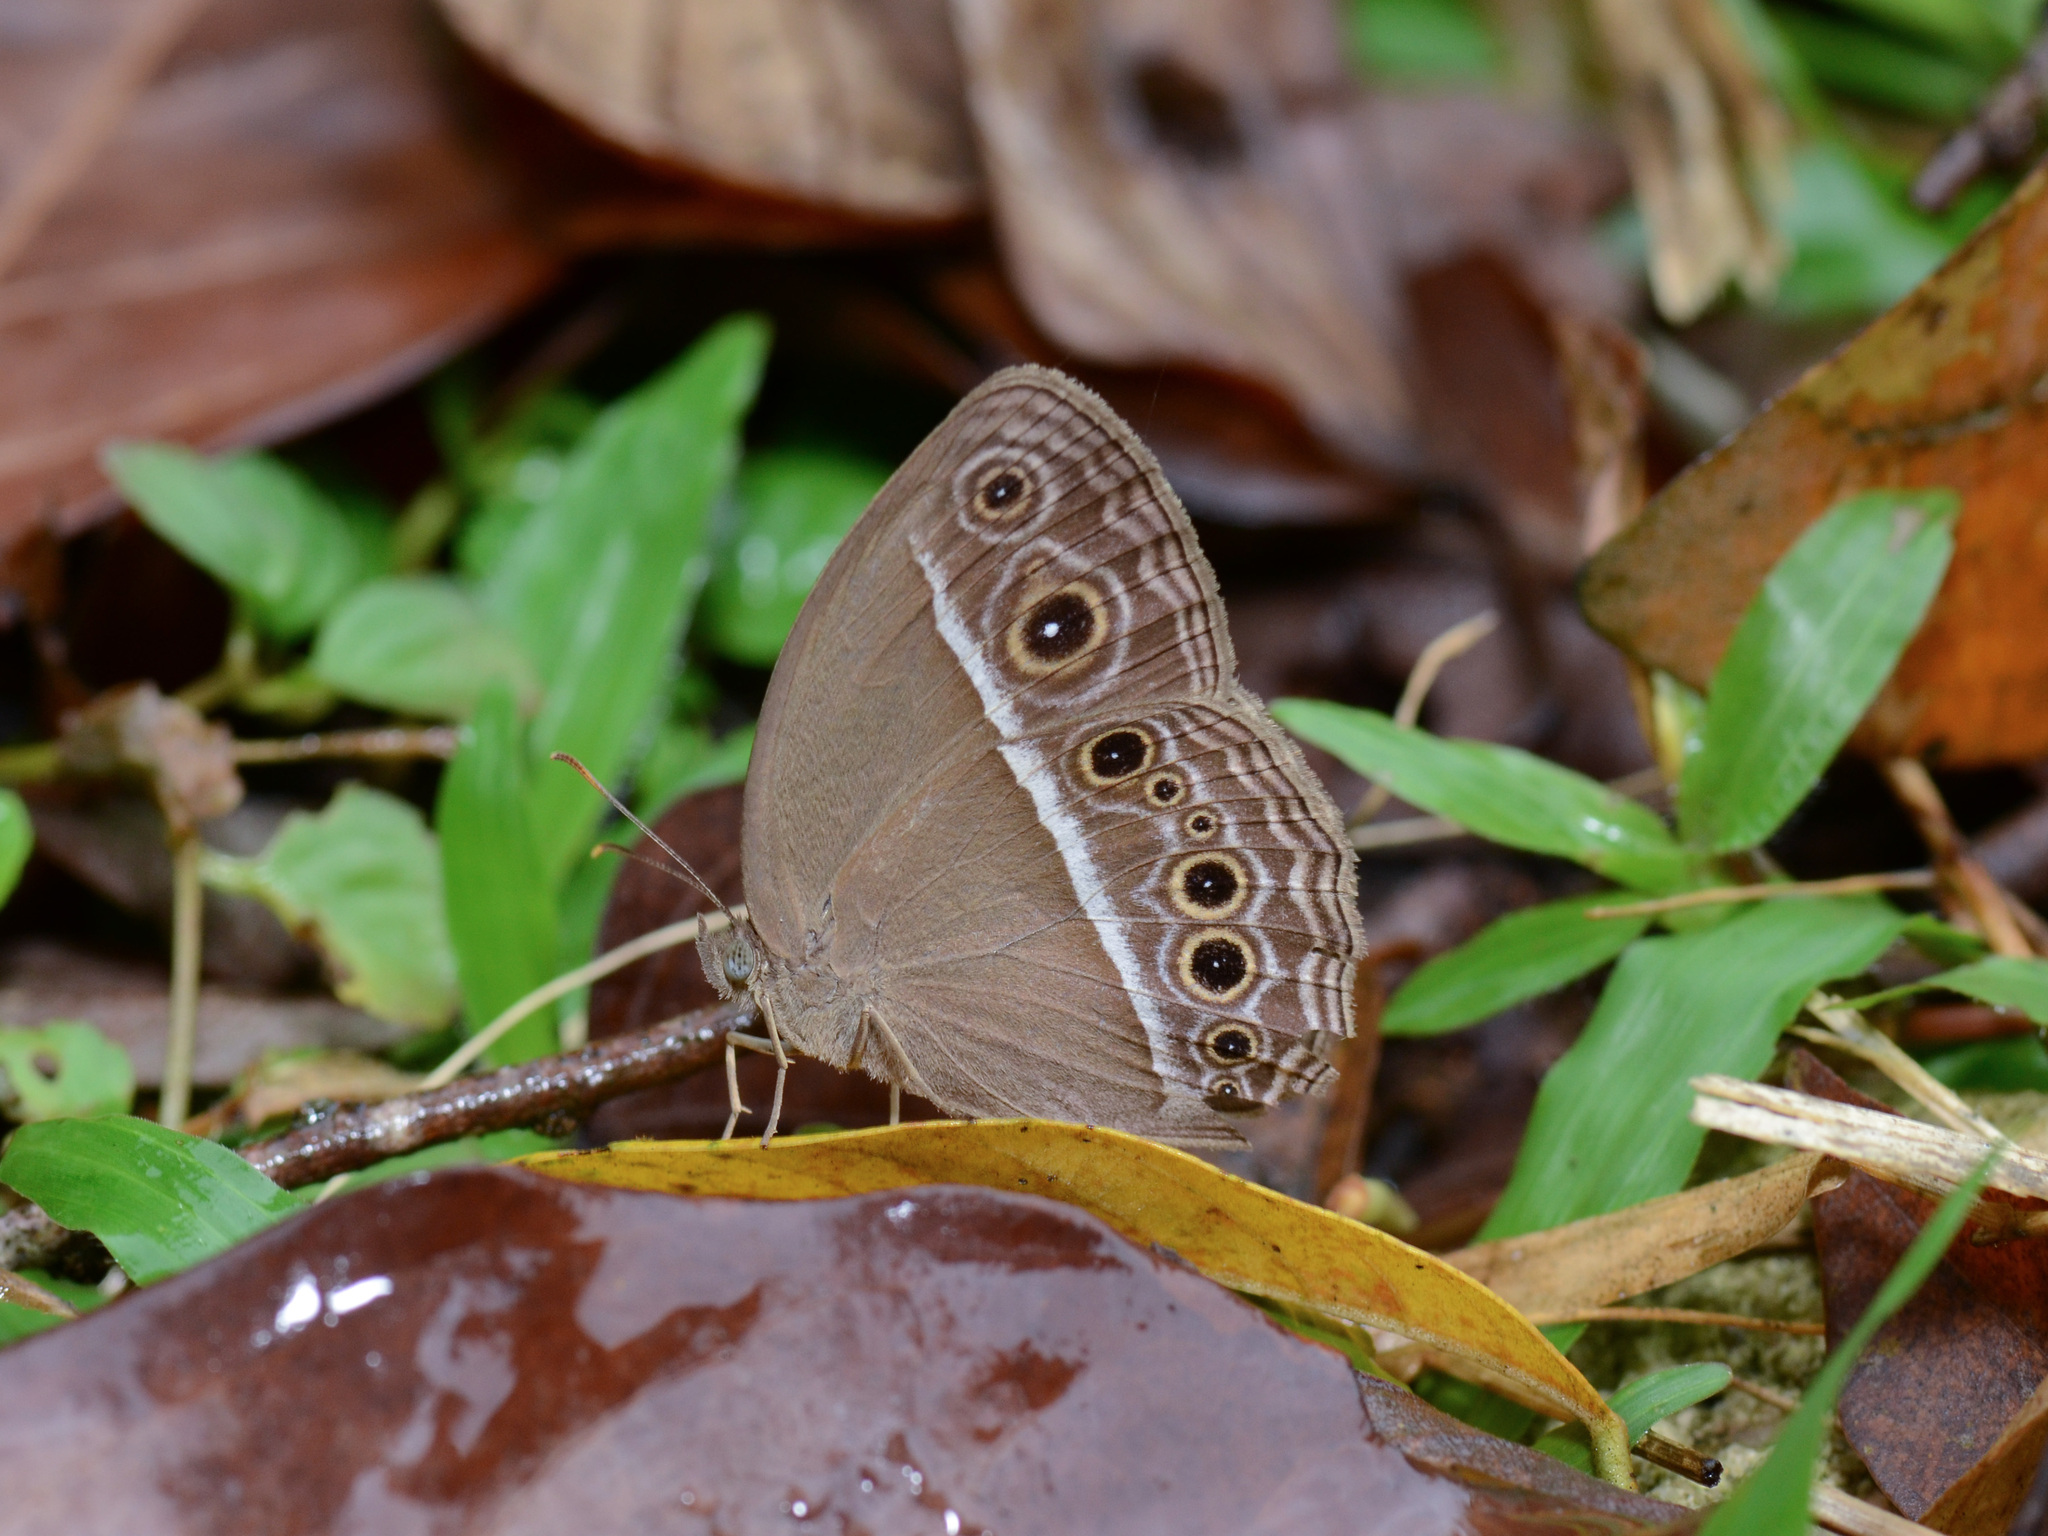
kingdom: Animalia
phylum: Arthropoda
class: Insecta
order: Lepidoptera
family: Nymphalidae
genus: Mycalesis
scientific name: Mycalesis mineus
